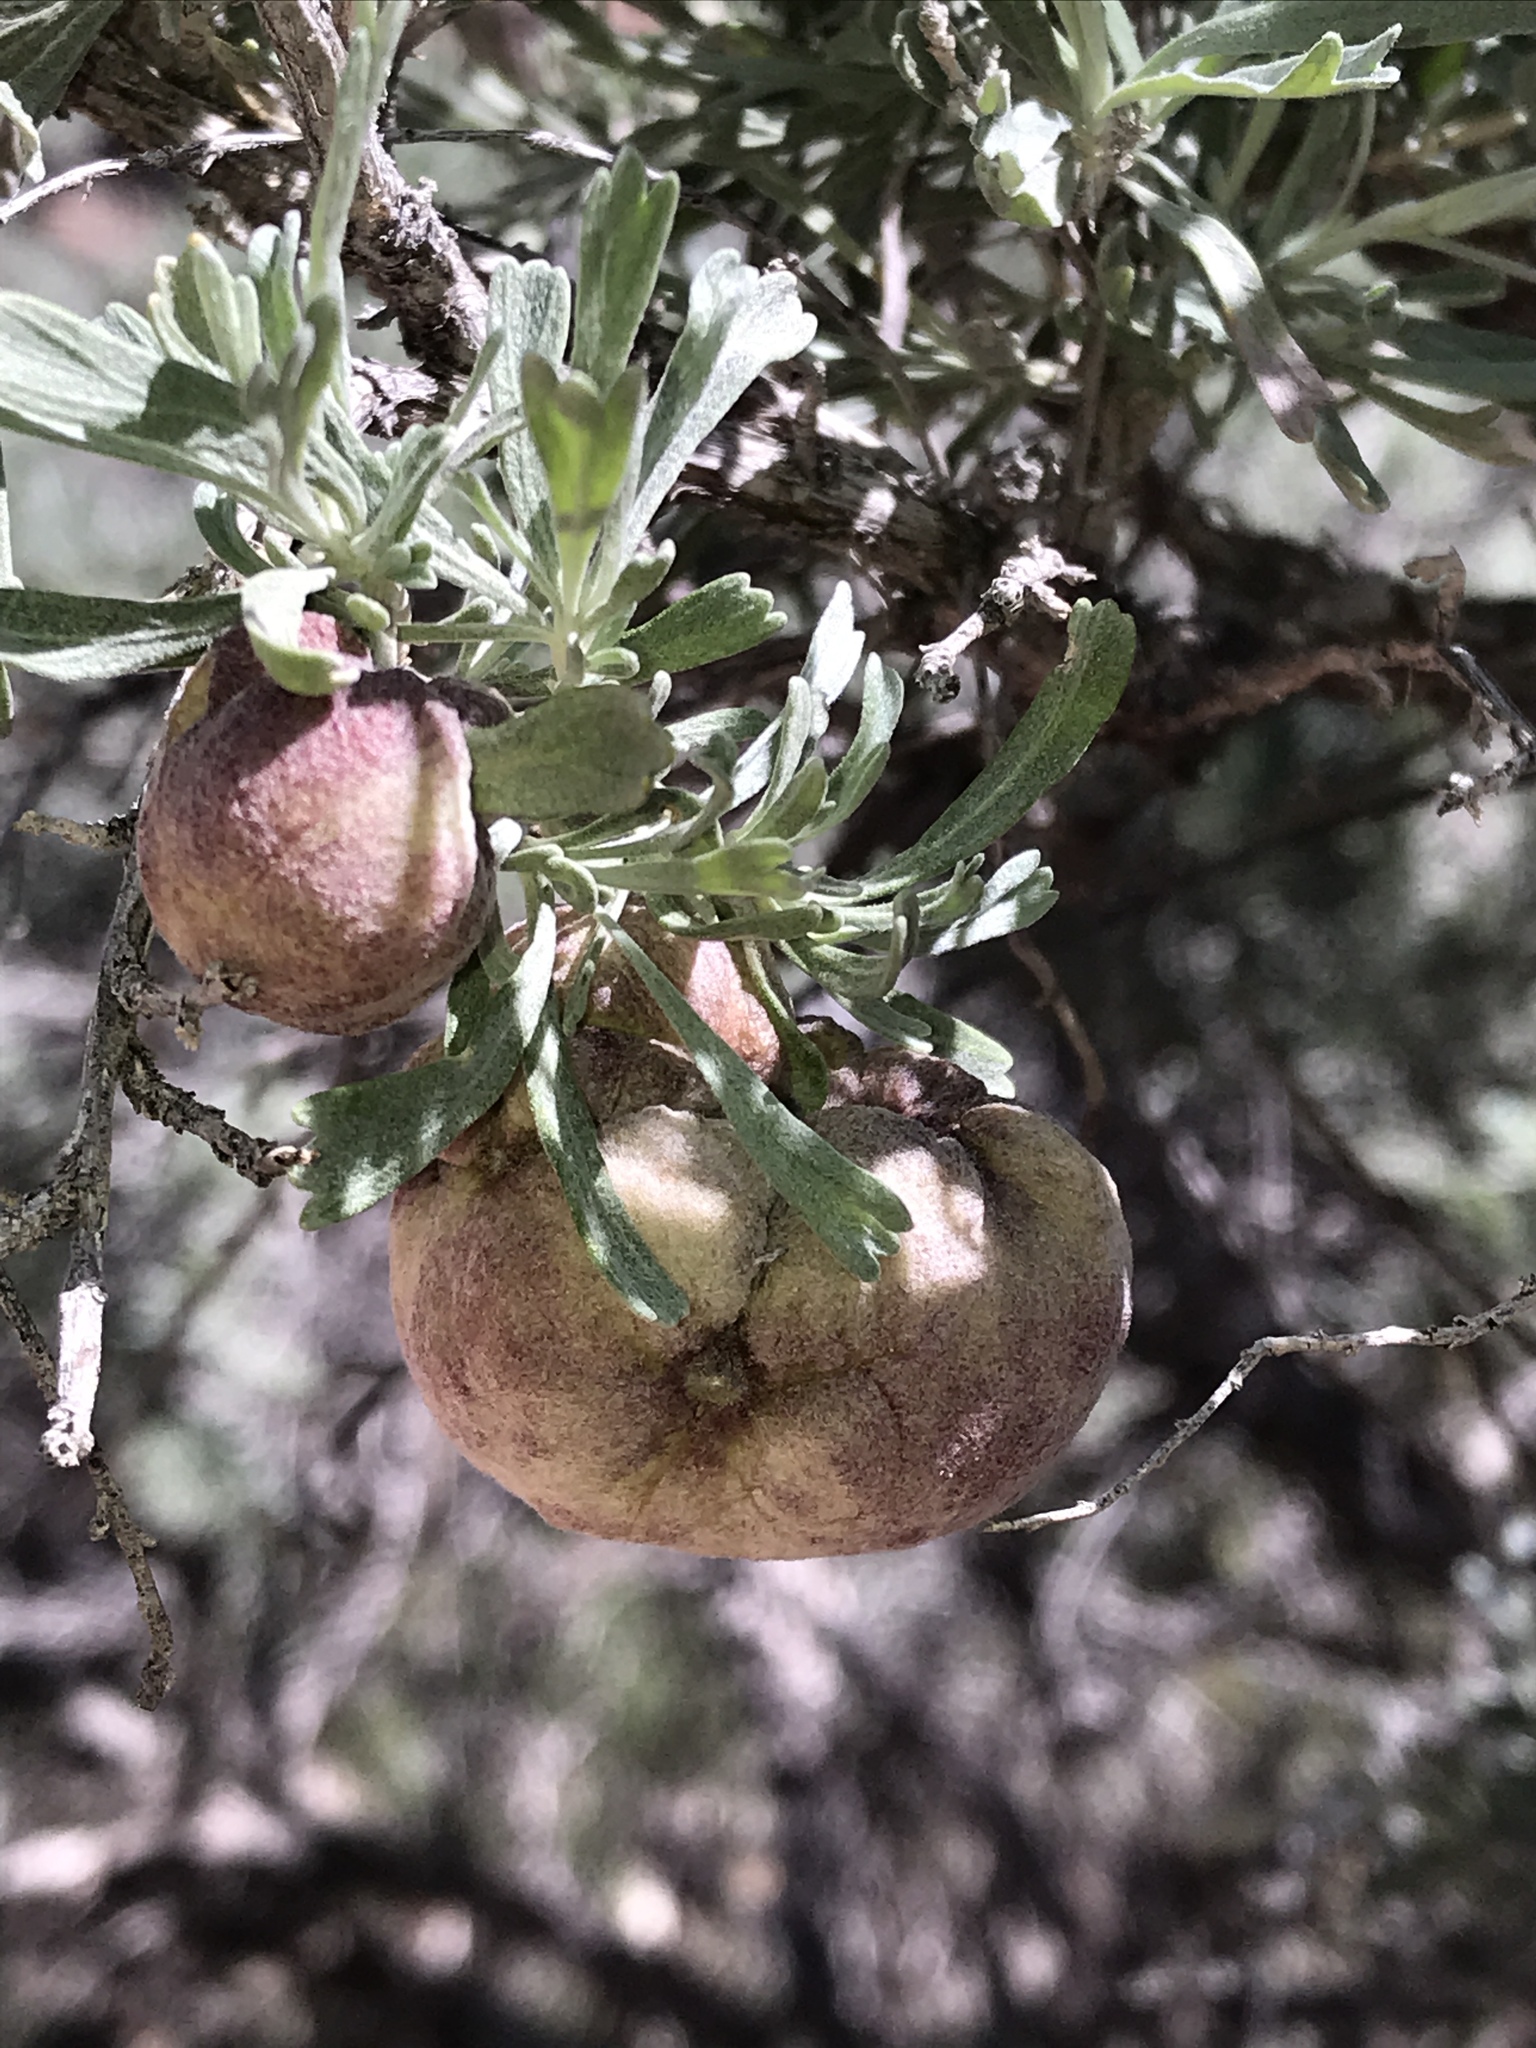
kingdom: Animalia
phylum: Arthropoda
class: Insecta
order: Diptera
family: Cecidomyiidae
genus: Rhopalomyia
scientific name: Rhopalomyia pomum
